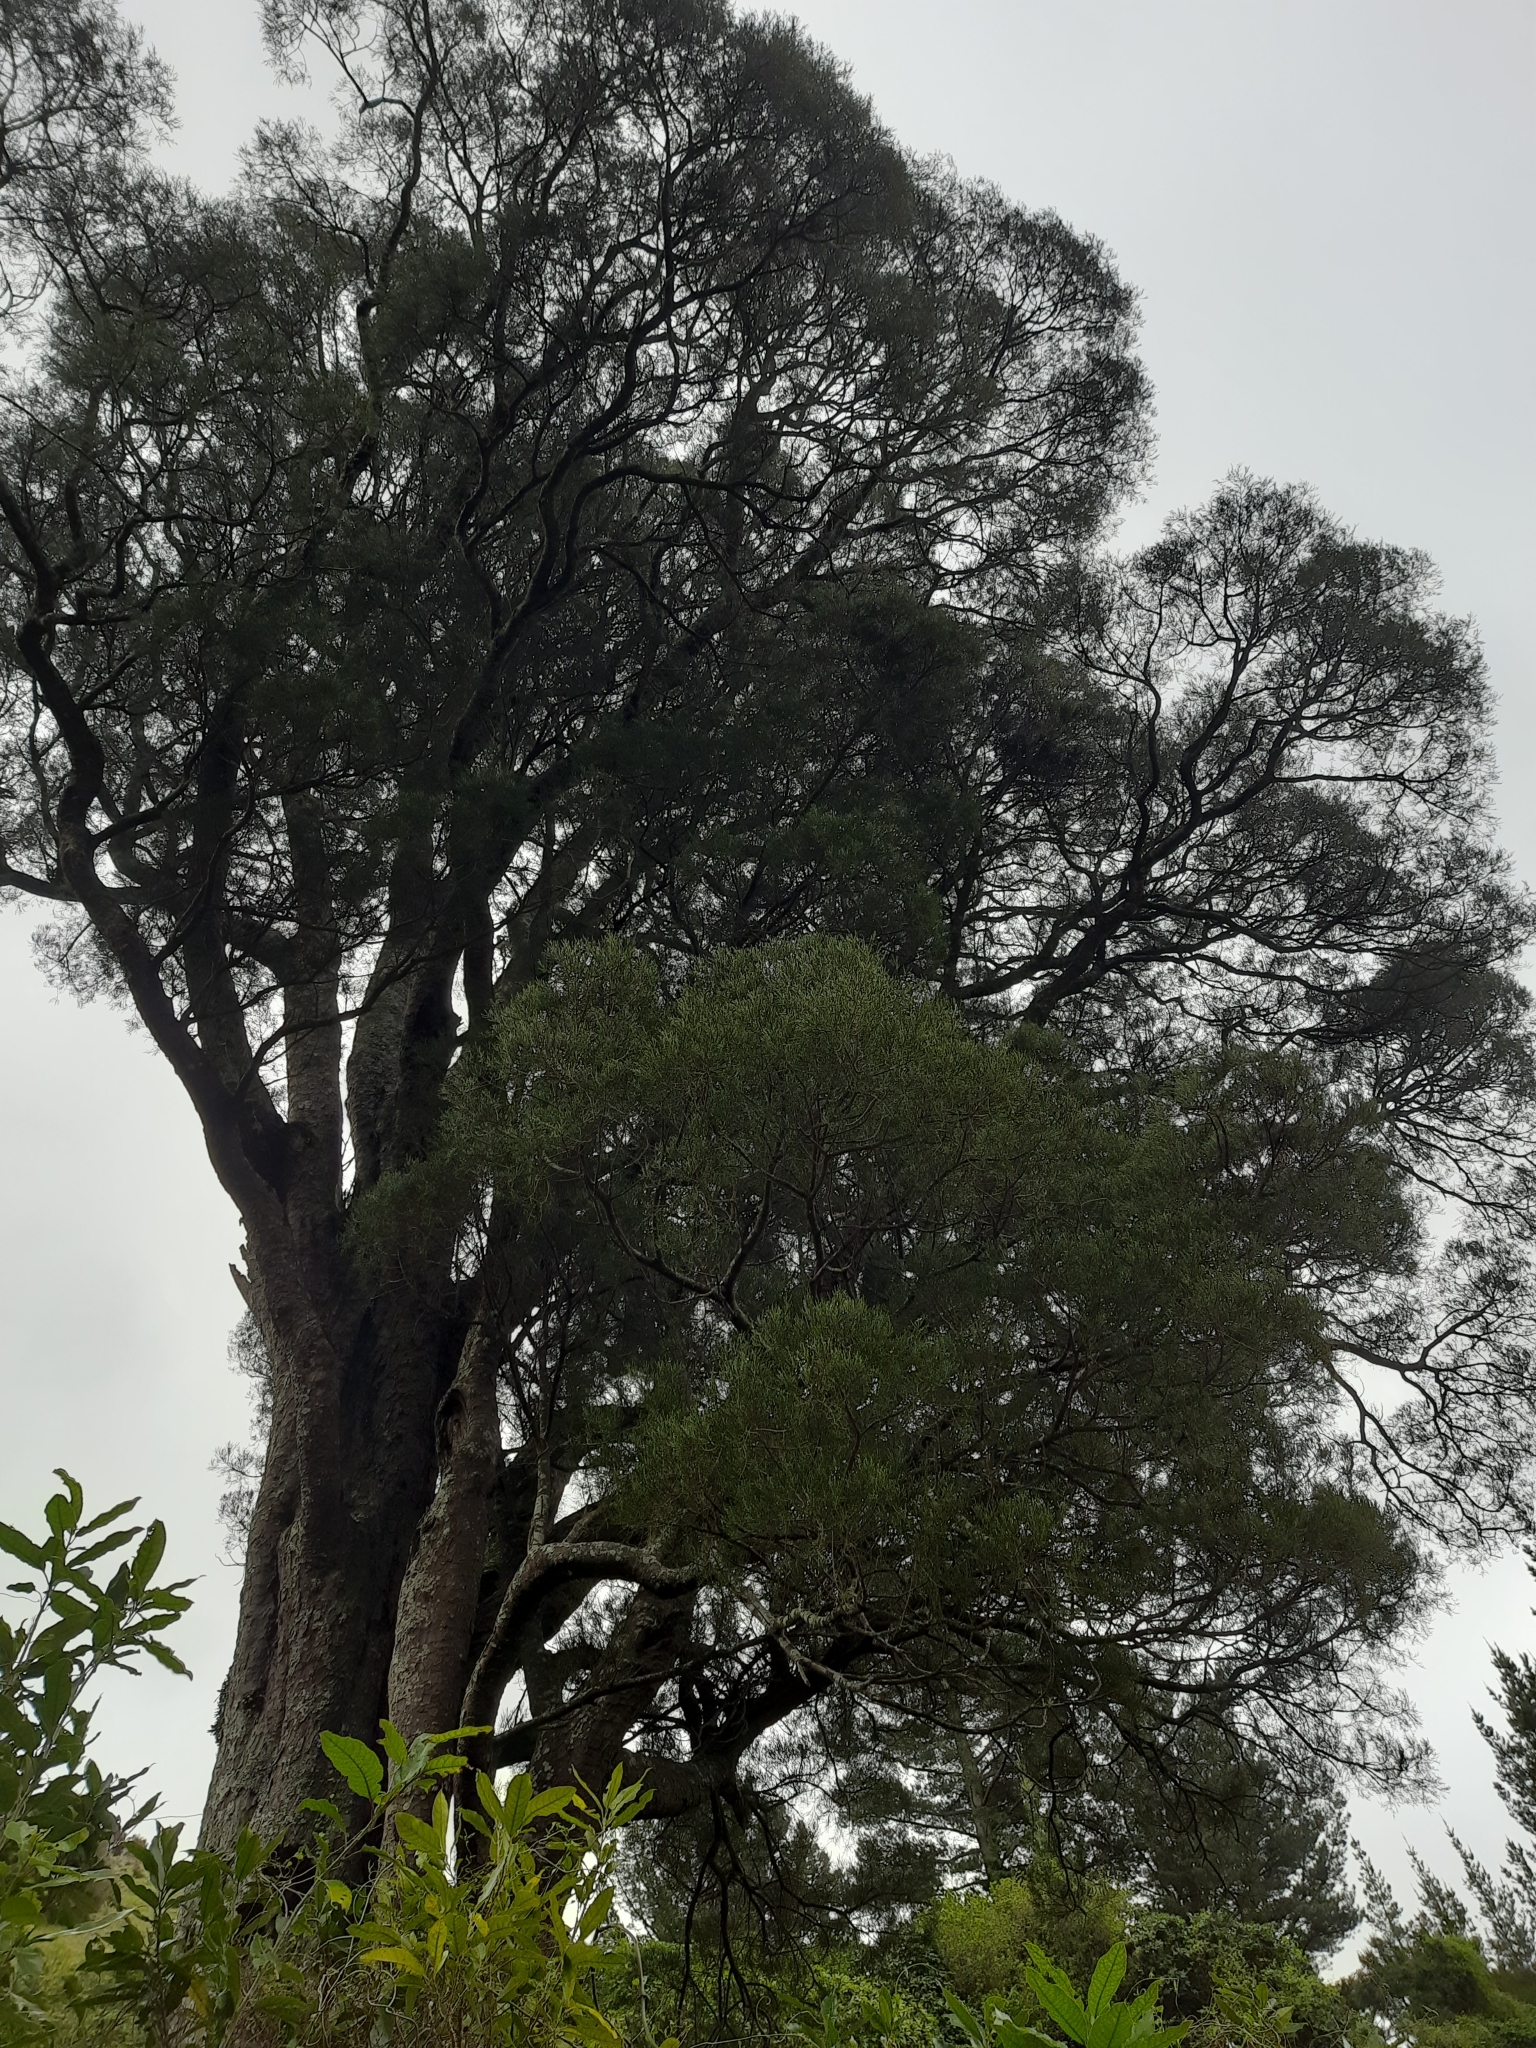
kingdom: Plantae
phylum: Tracheophyta
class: Pinopsida
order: Pinales
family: Podocarpaceae
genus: Dacrycarpus
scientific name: Dacrycarpus dacrydioides
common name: White pine
